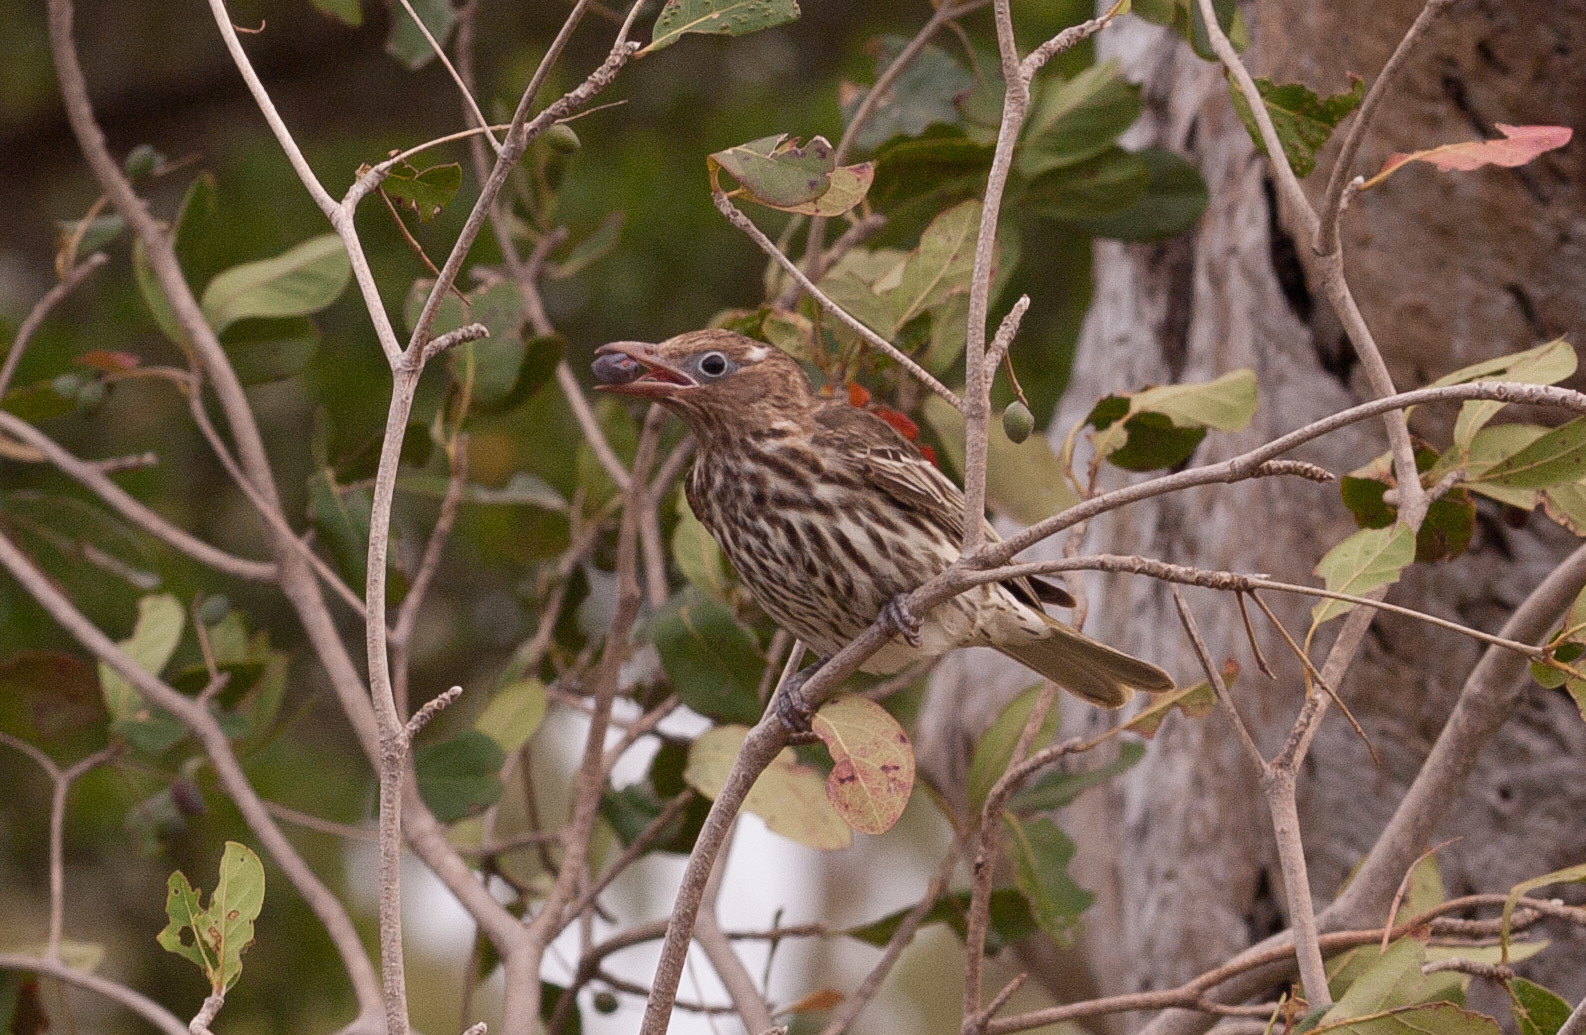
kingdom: Animalia
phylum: Chordata
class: Aves
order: Passeriformes
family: Oriolidae
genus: Sphecotheres
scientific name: Sphecotheres vieilloti
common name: Australasian figbird
